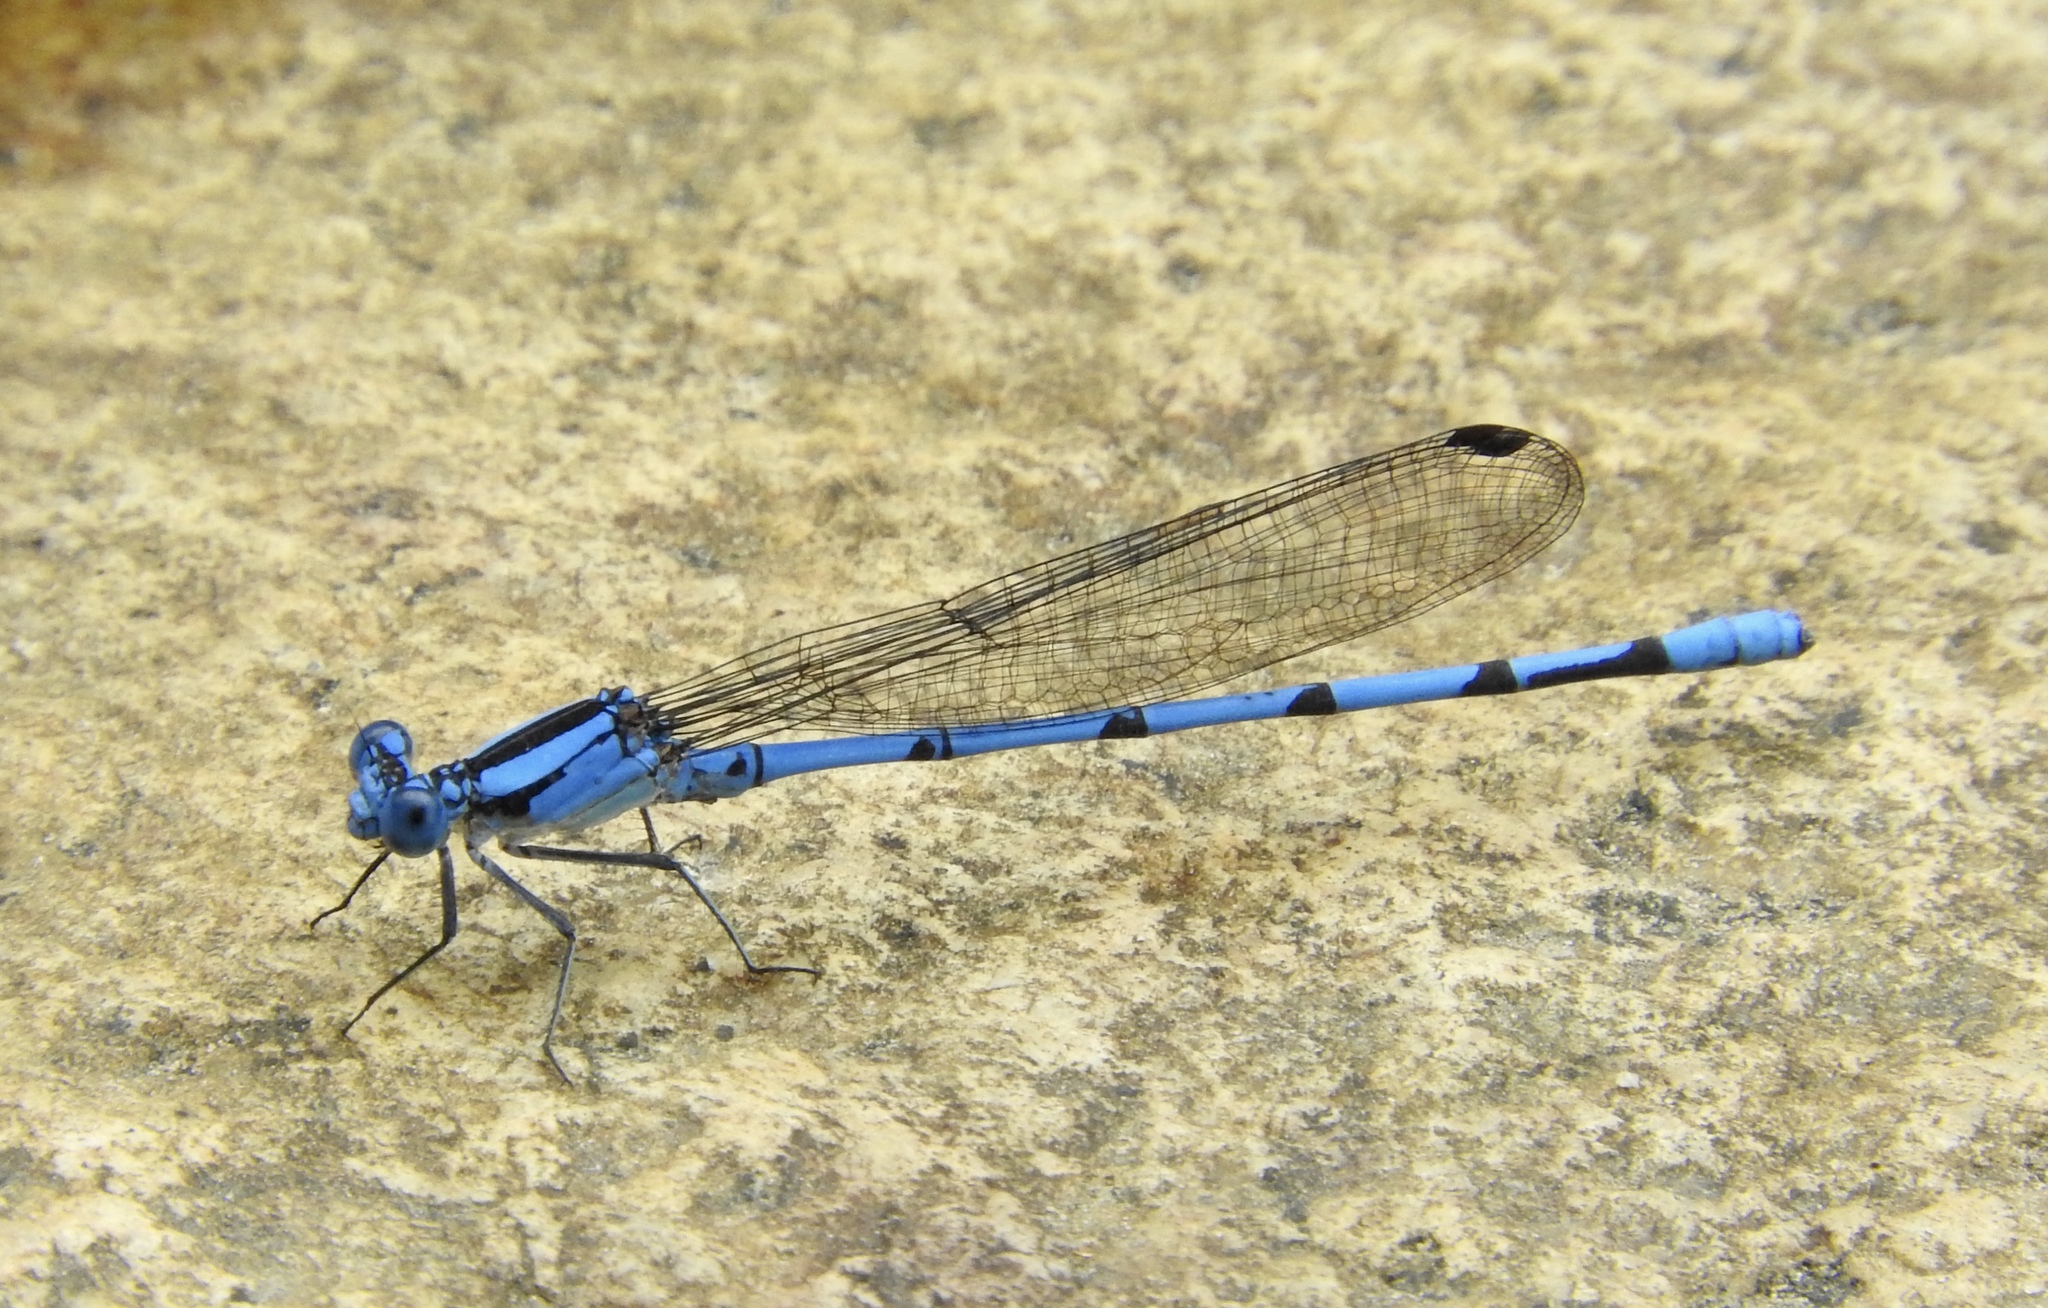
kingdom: Animalia
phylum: Arthropoda
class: Insecta
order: Odonata
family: Coenagrionidae
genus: Argia
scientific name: Argia lacrimans
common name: Sierra madre dancer
